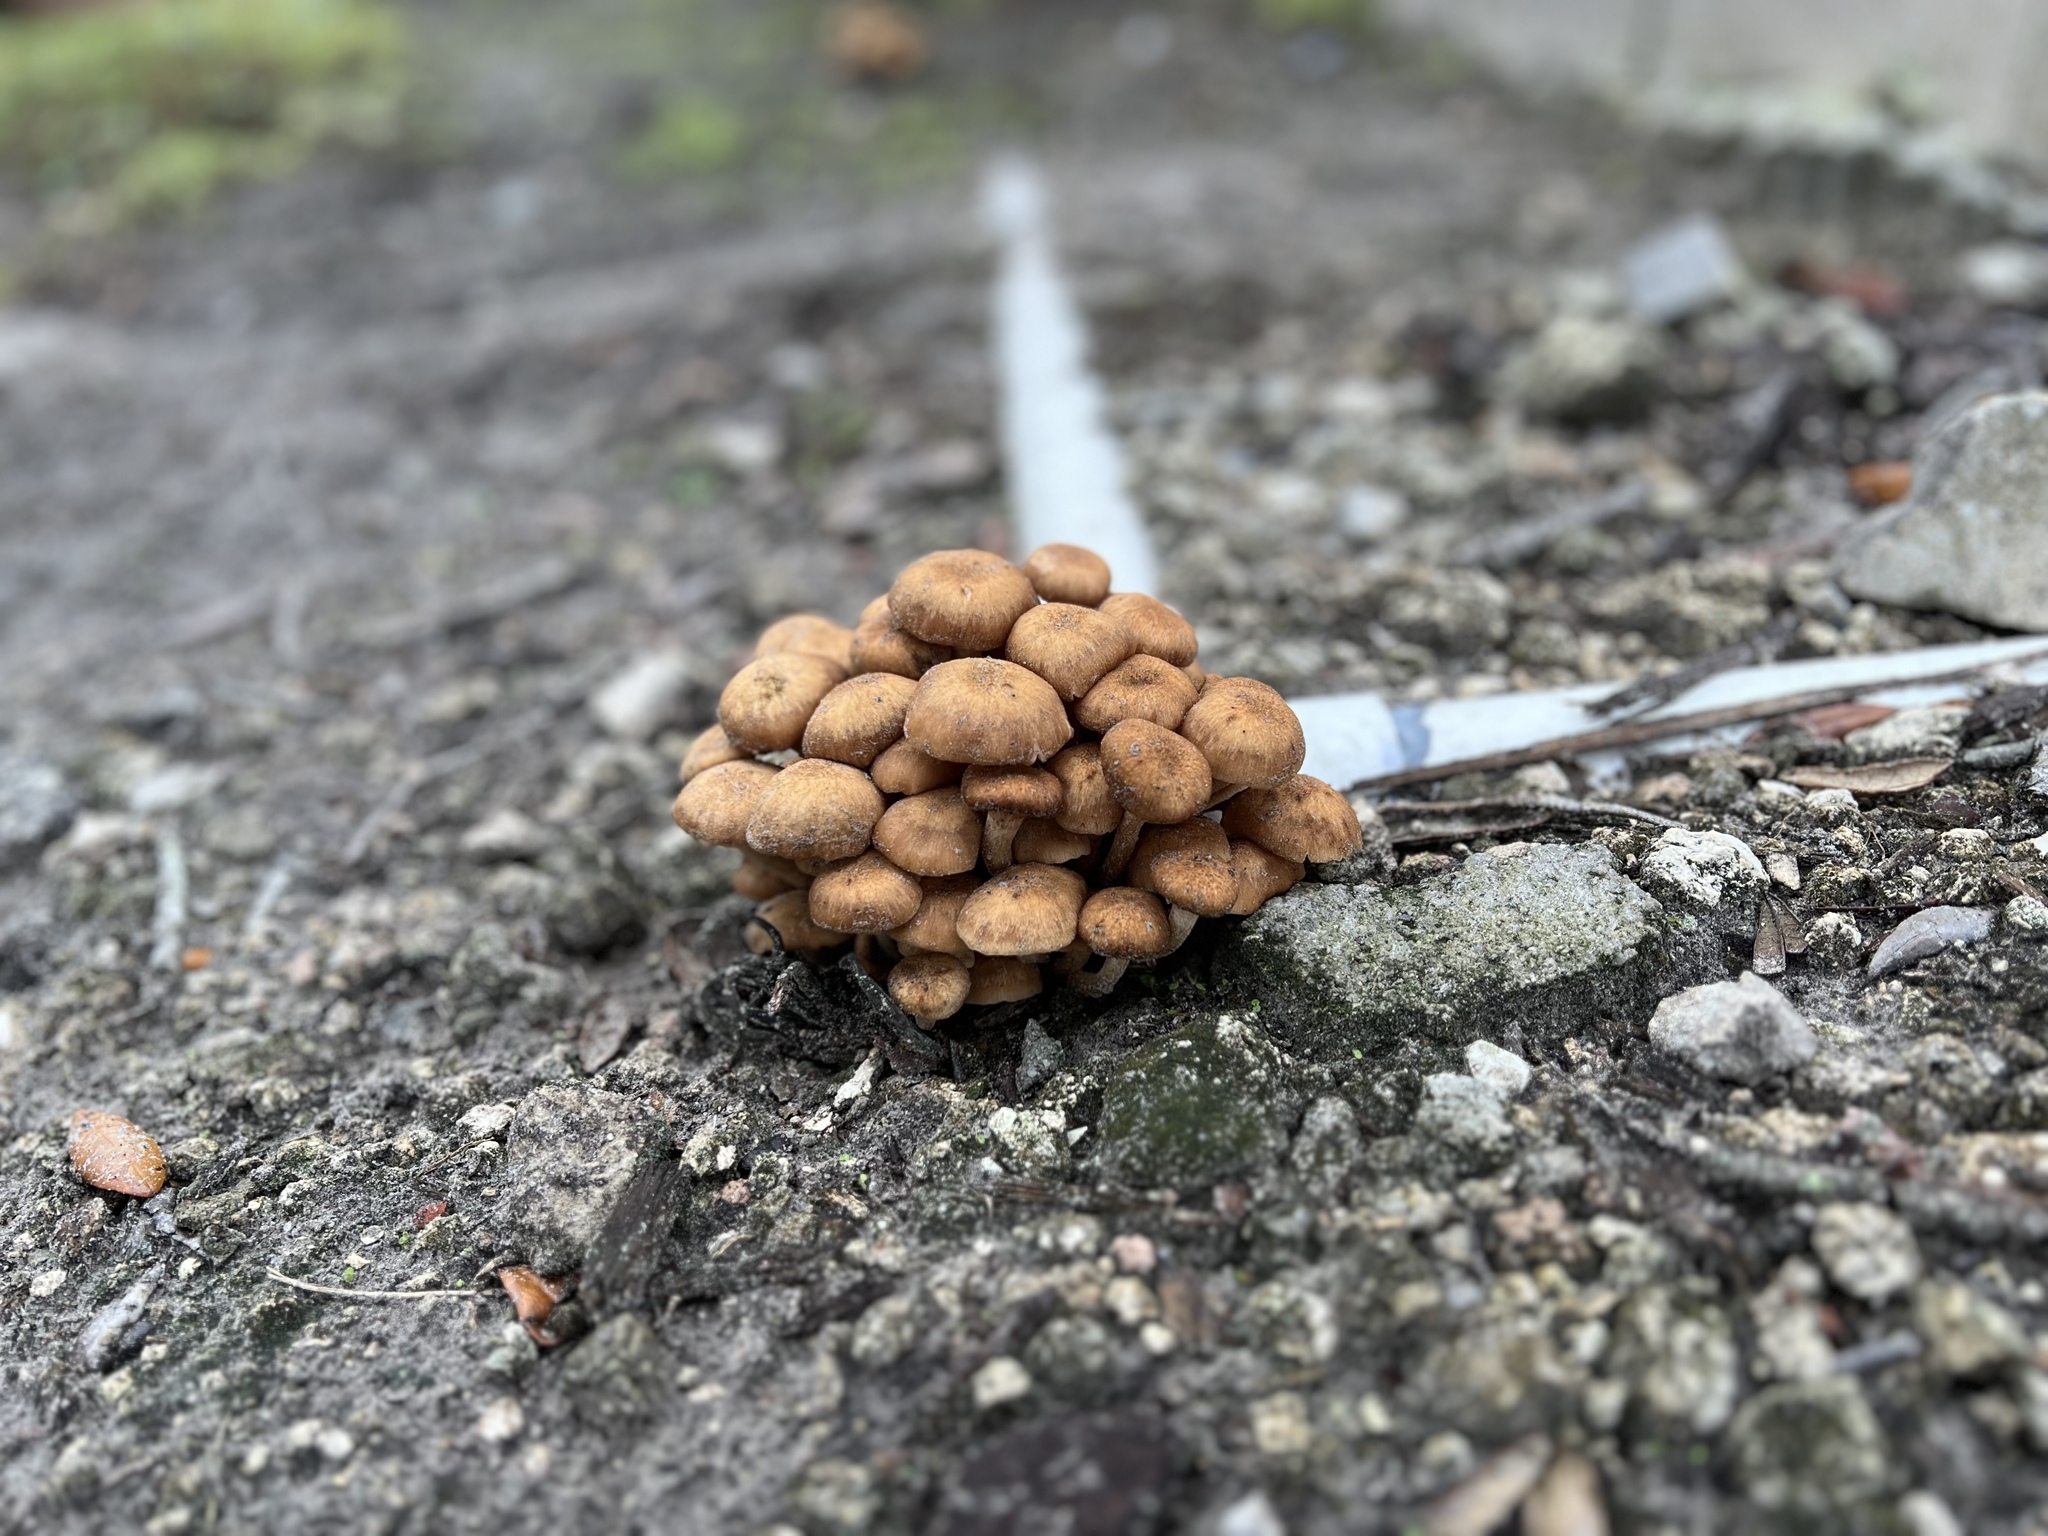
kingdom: Fungi
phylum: Basidiomycota
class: Agaricomycetes
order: Agaricales
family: Physalacriaceae
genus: Desarmillaria
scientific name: Desarmillaria caespitosa
